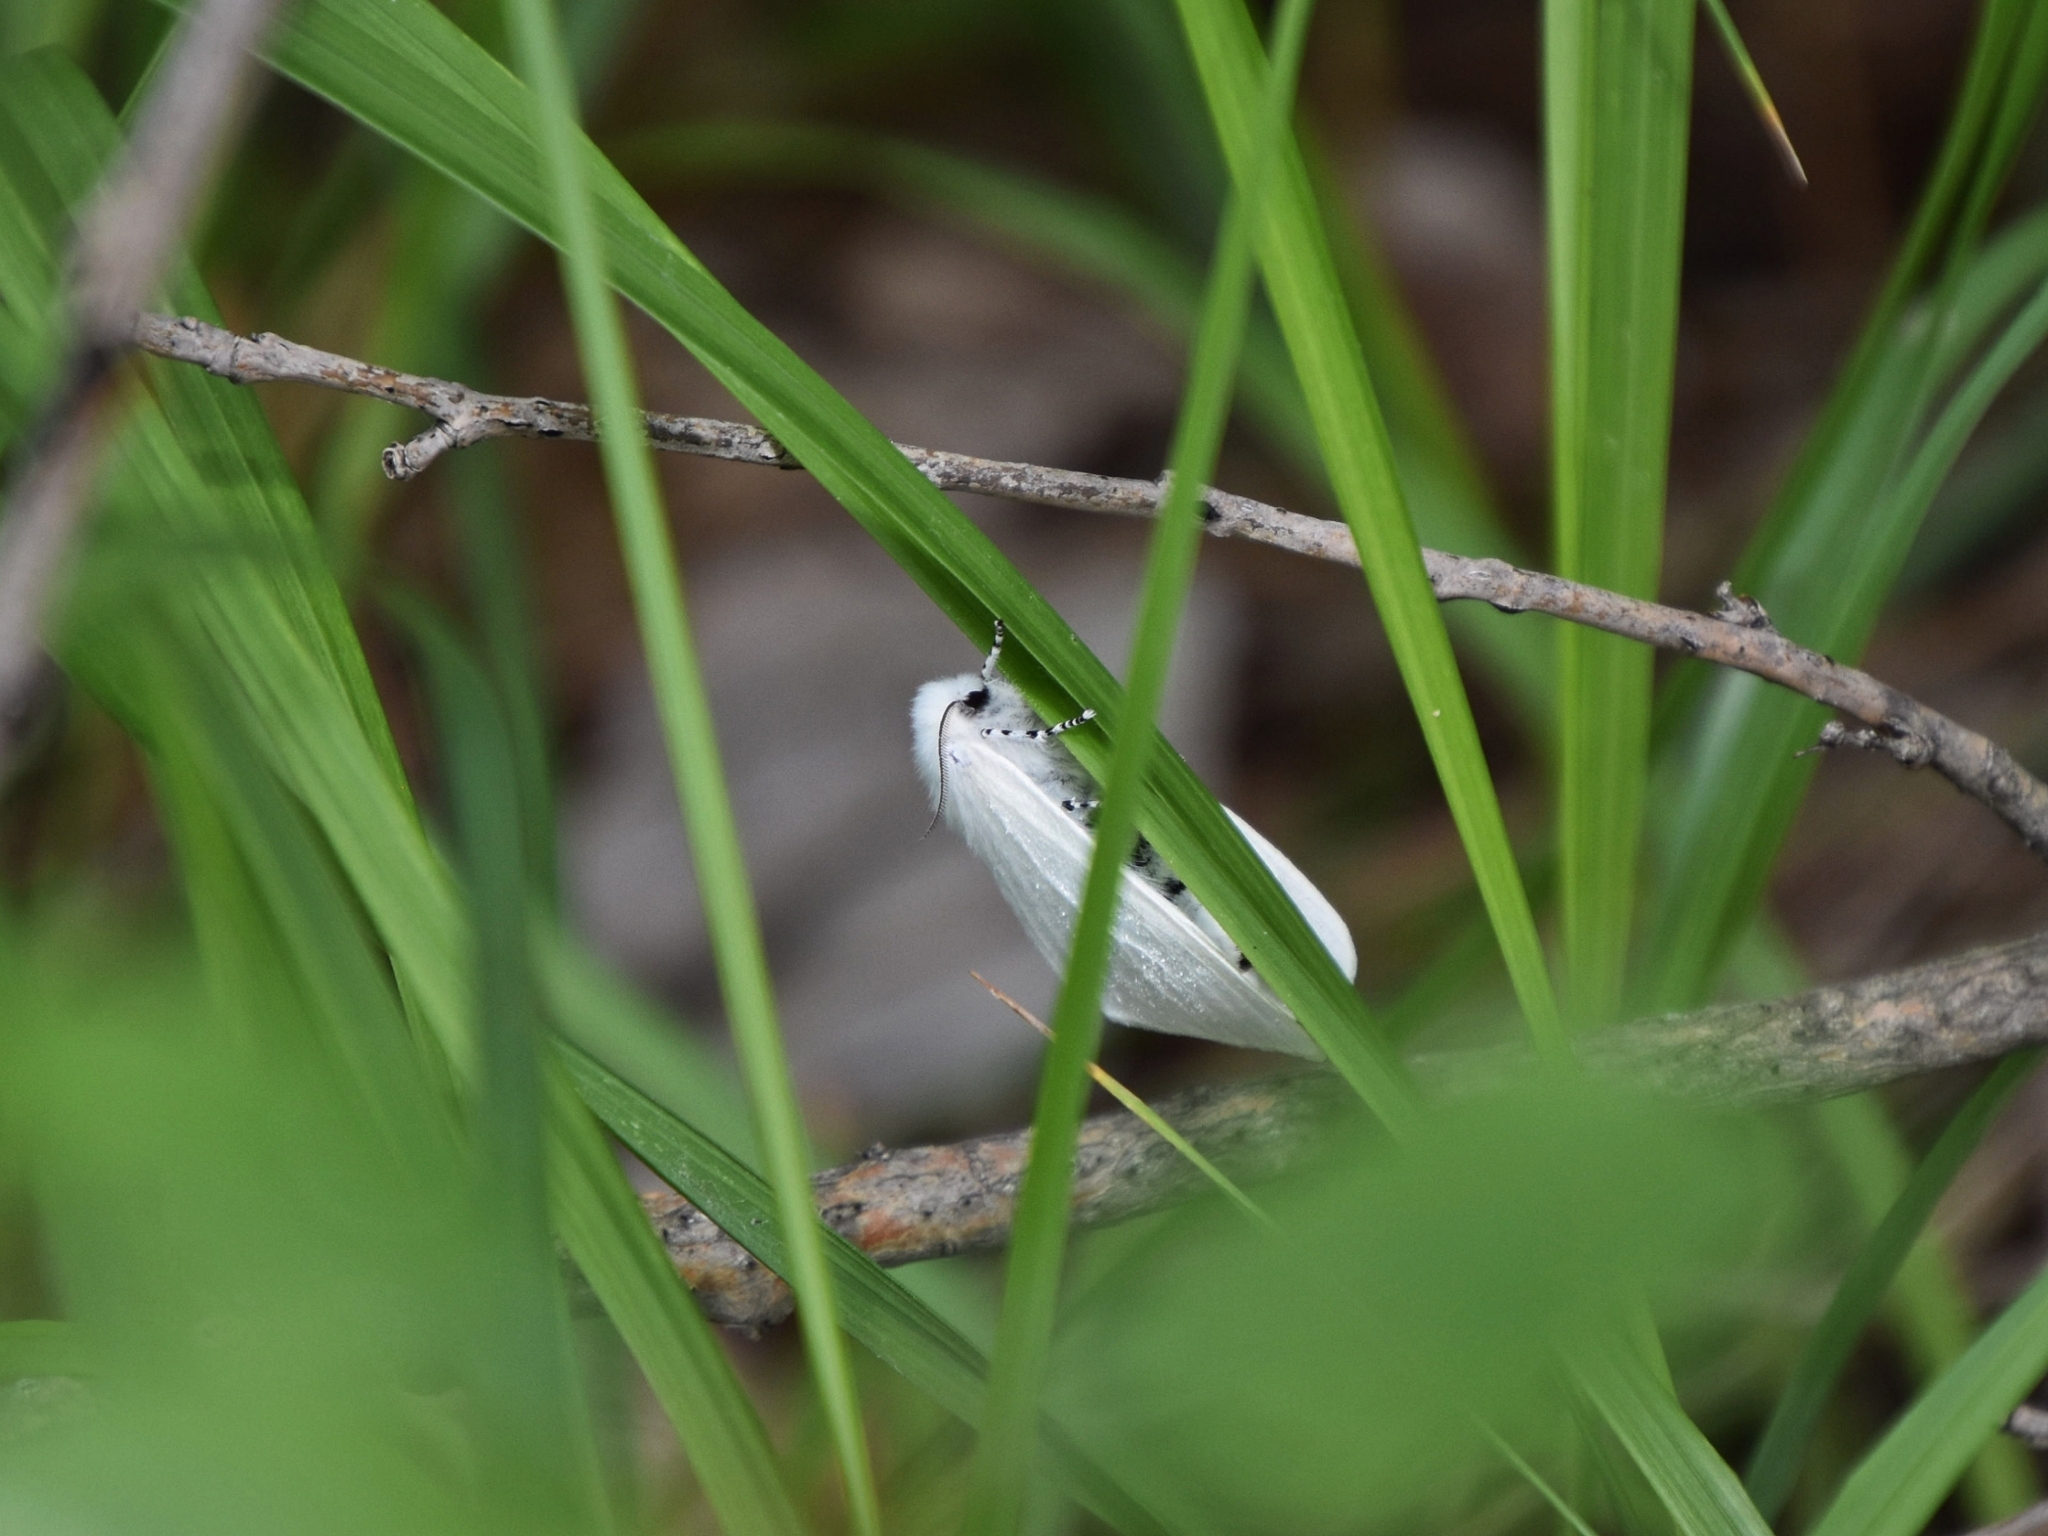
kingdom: Animalia
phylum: Arthropoda
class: Insecta
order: Lepidoptera
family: Erebidae
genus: Leucoma
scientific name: Leucoma salicis
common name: White satin moth
